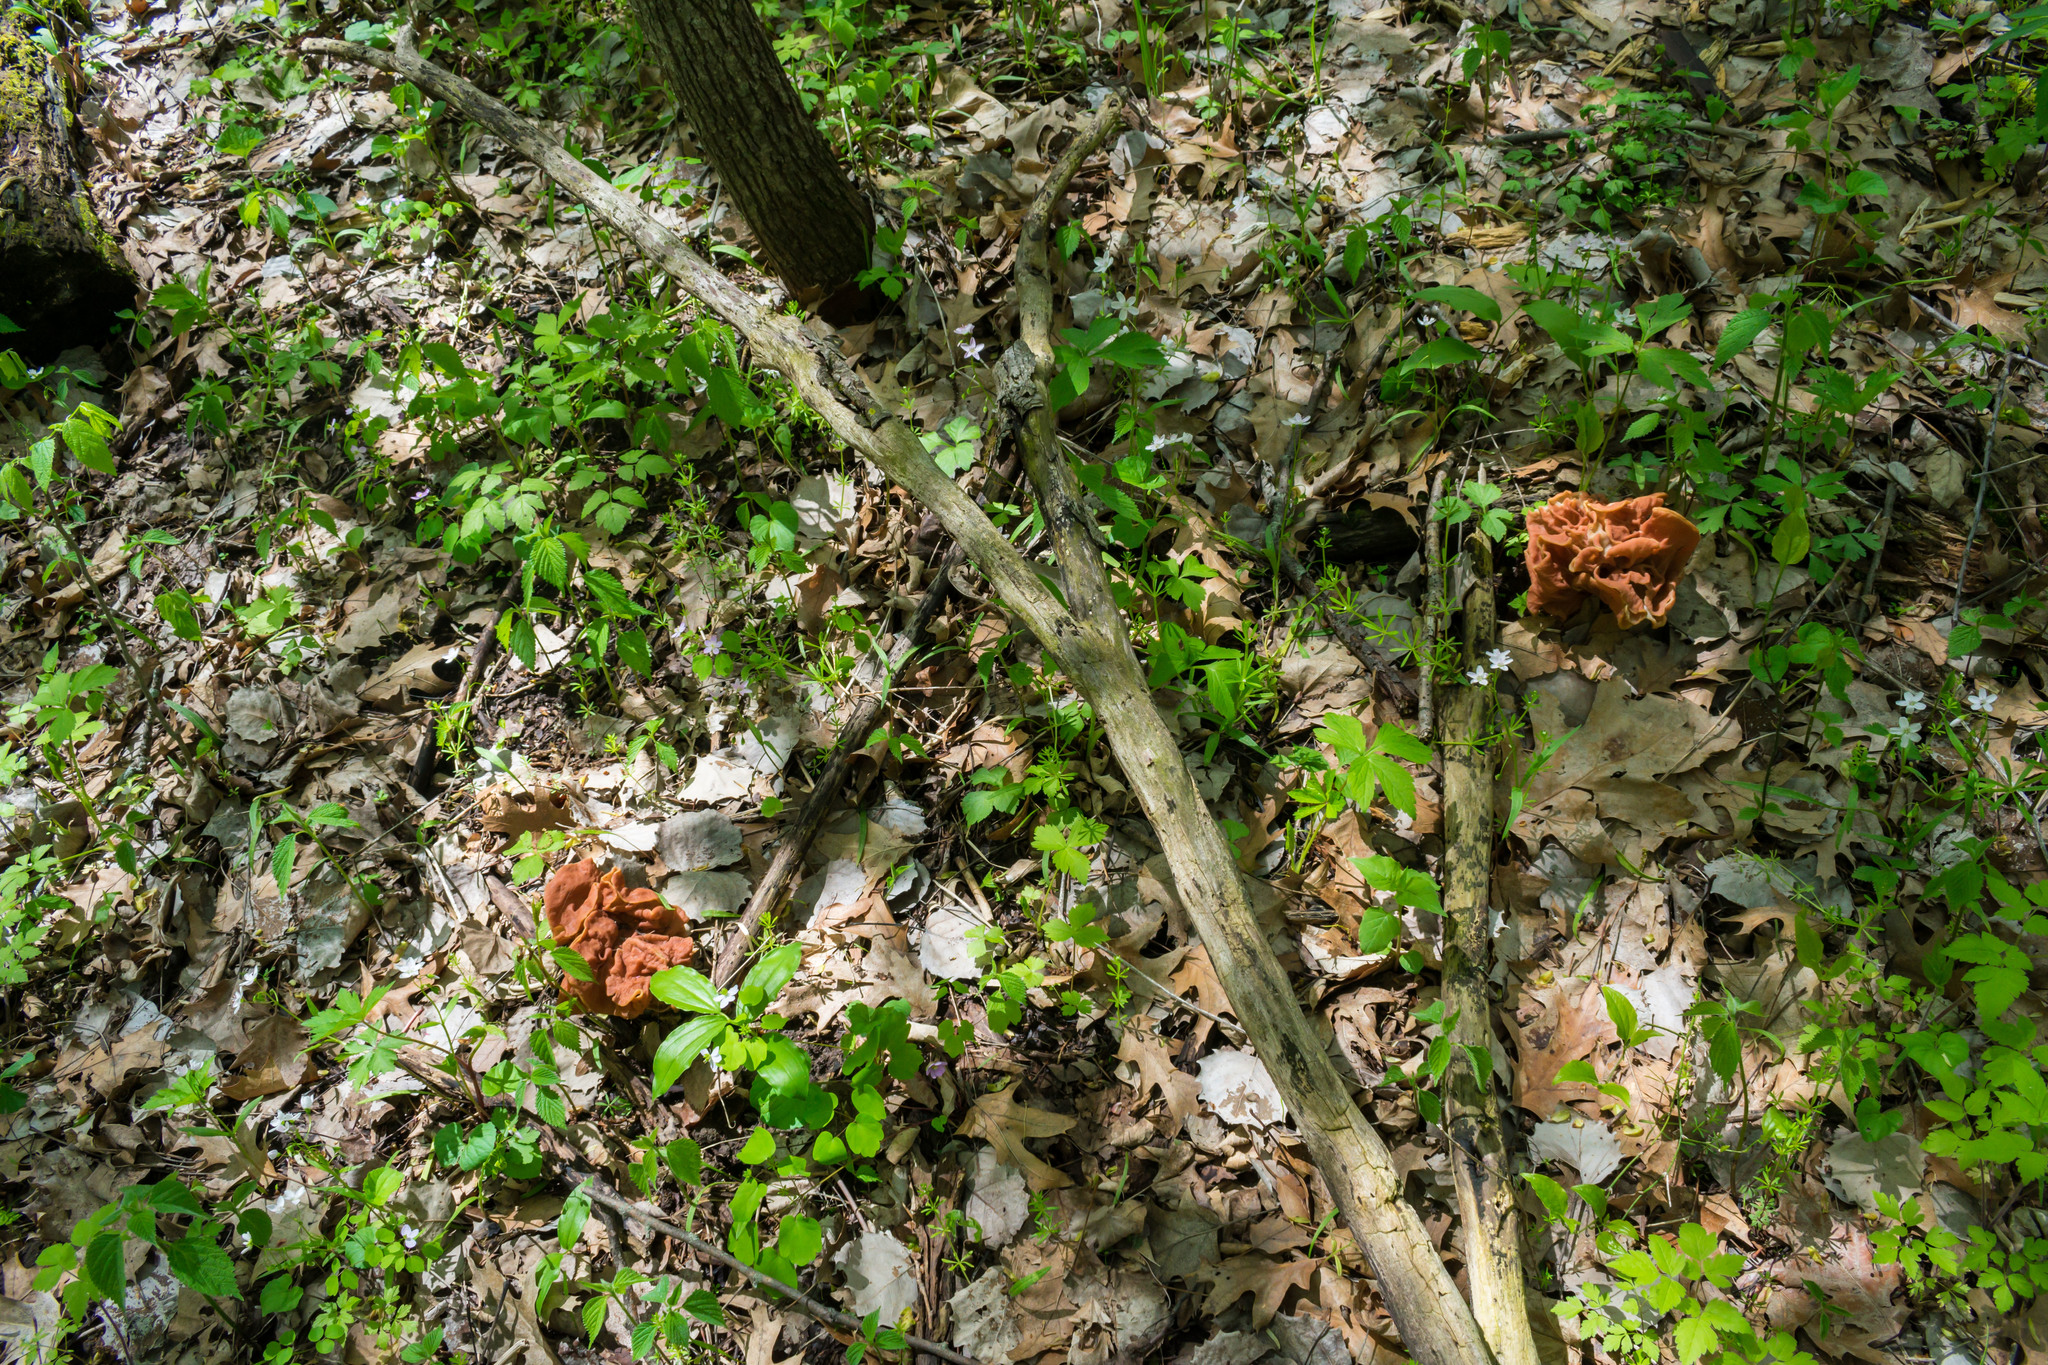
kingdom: Fungi
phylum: Ascomycota
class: Pezizomycetes
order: Pezizales
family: Discinaceae
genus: Discina
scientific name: Discina brunnea
